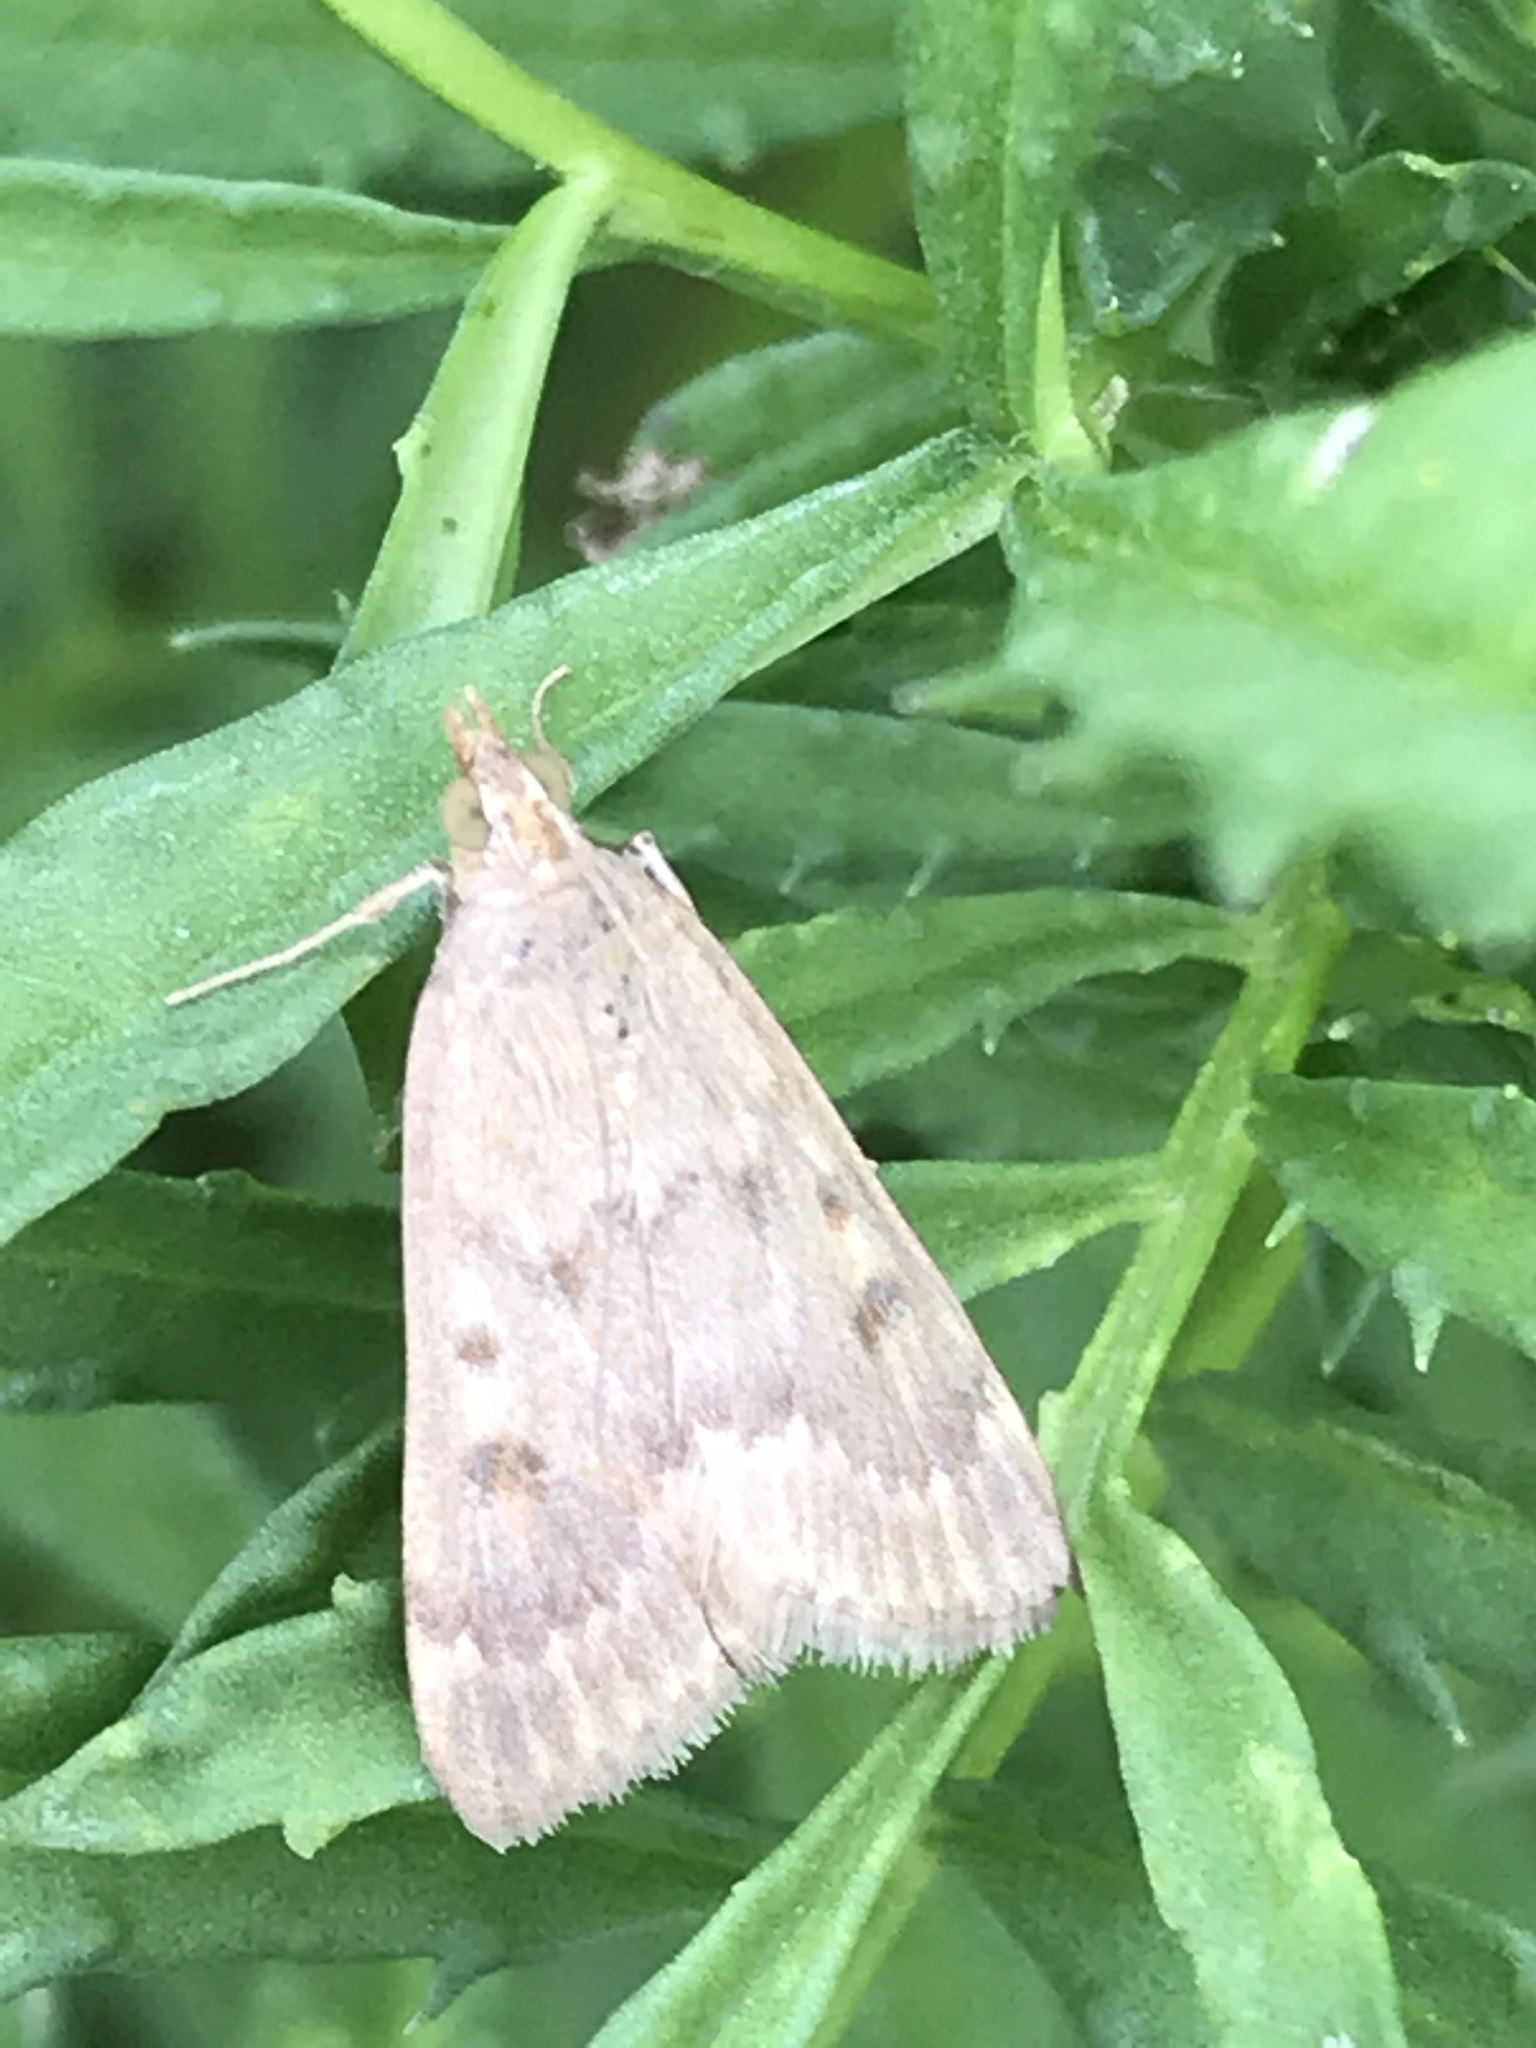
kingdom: Animalia
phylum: Arthropoda
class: Insecta
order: Lepidoptera
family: Crambidae
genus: Achyra
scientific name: Achyra rantalis
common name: Garden webworm
